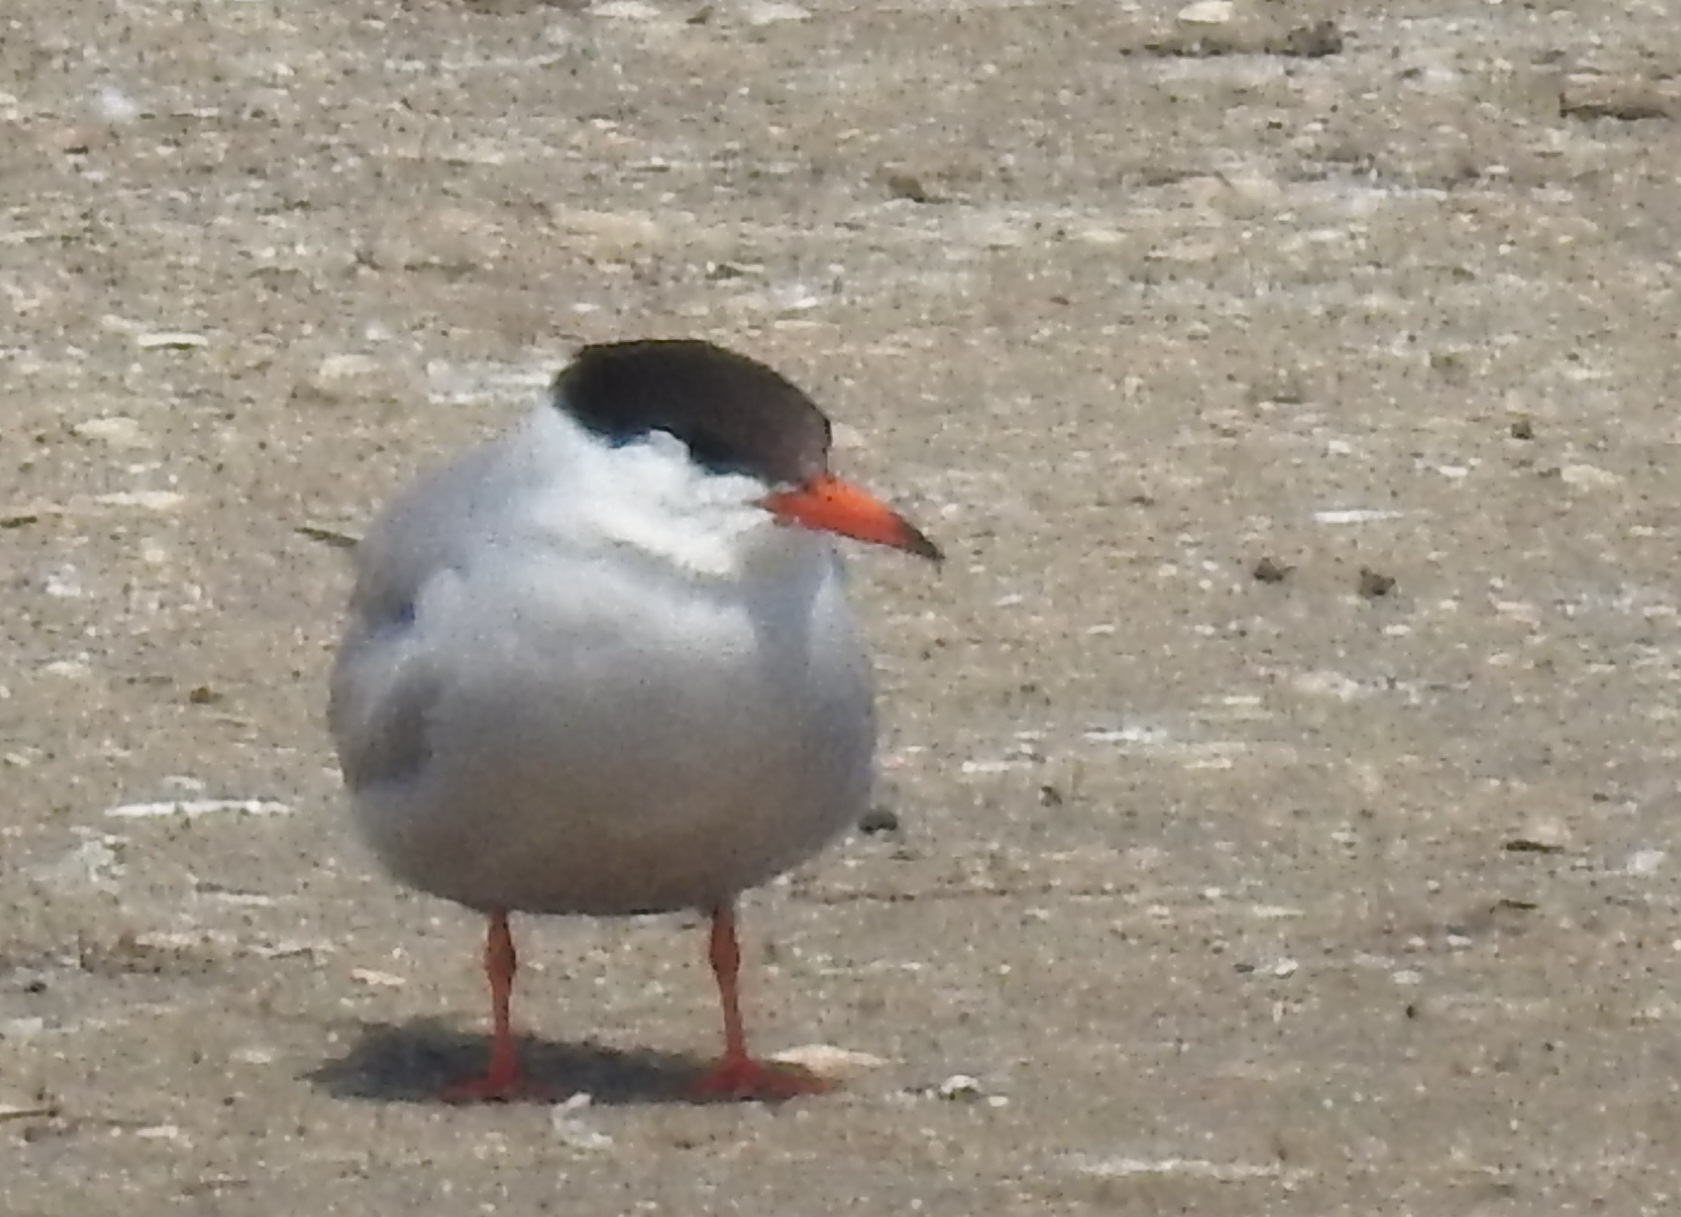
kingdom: Animalia
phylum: Chordata
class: Aves
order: Charadriiformes
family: Laridae
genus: Sterna
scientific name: Sterna hirundo
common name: Common tern
